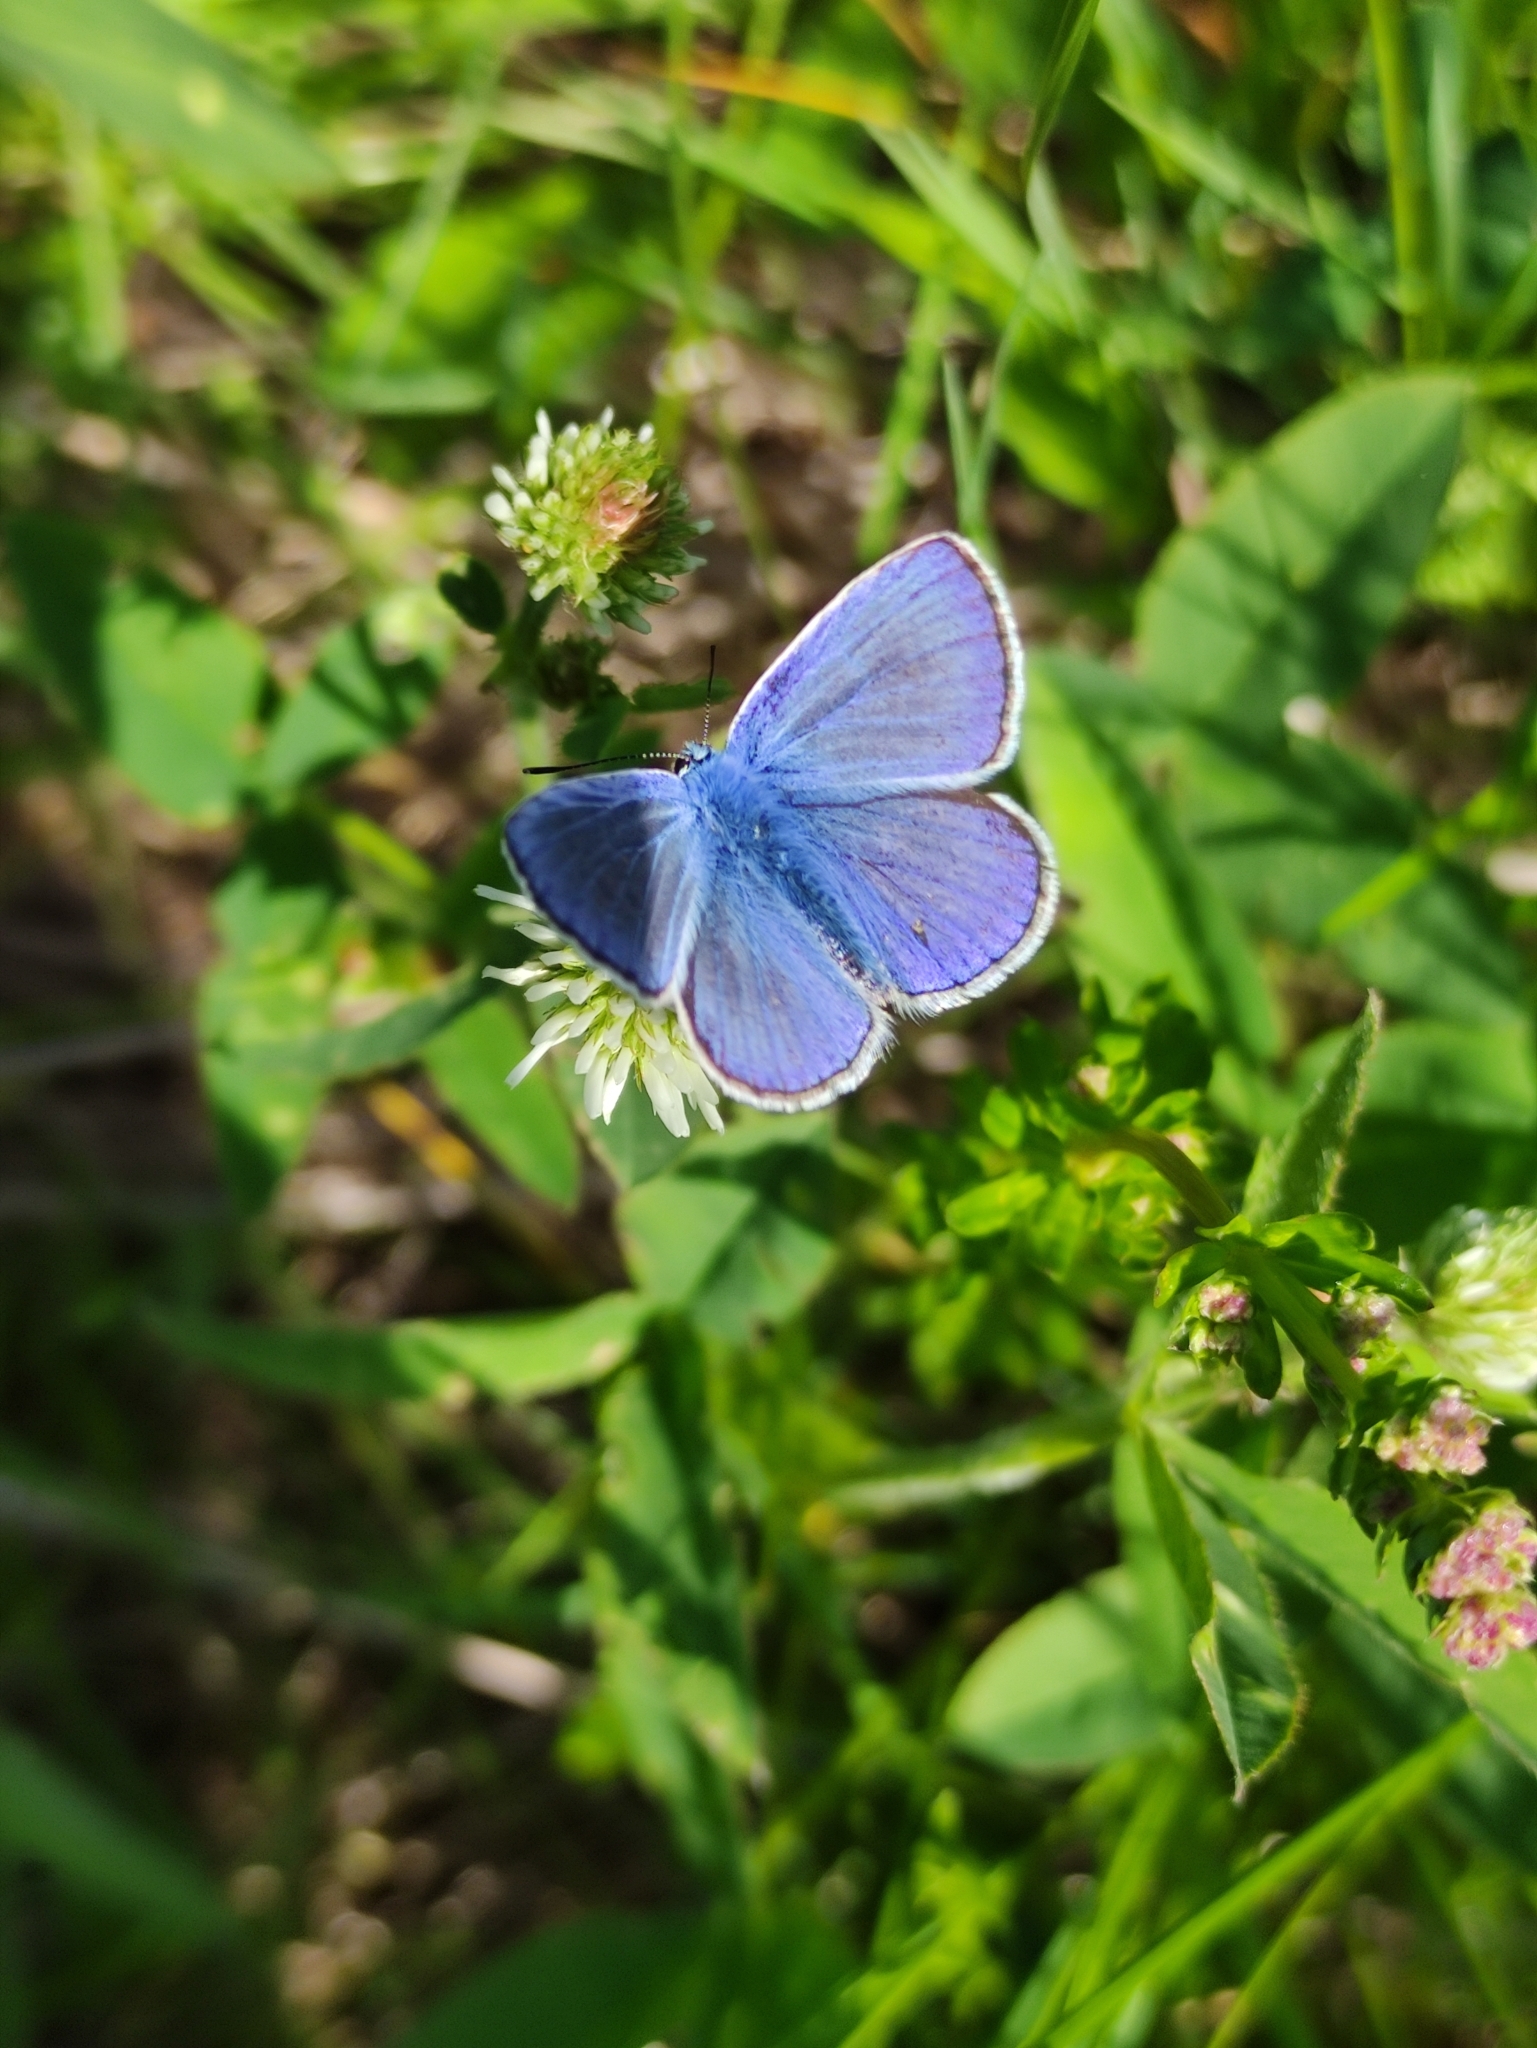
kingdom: Animalia
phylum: Arthropoda
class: Insecta
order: Lepidoptera
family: Lycaenidae
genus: Polyommatus
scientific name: Polyommatus icarus
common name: Common blue
